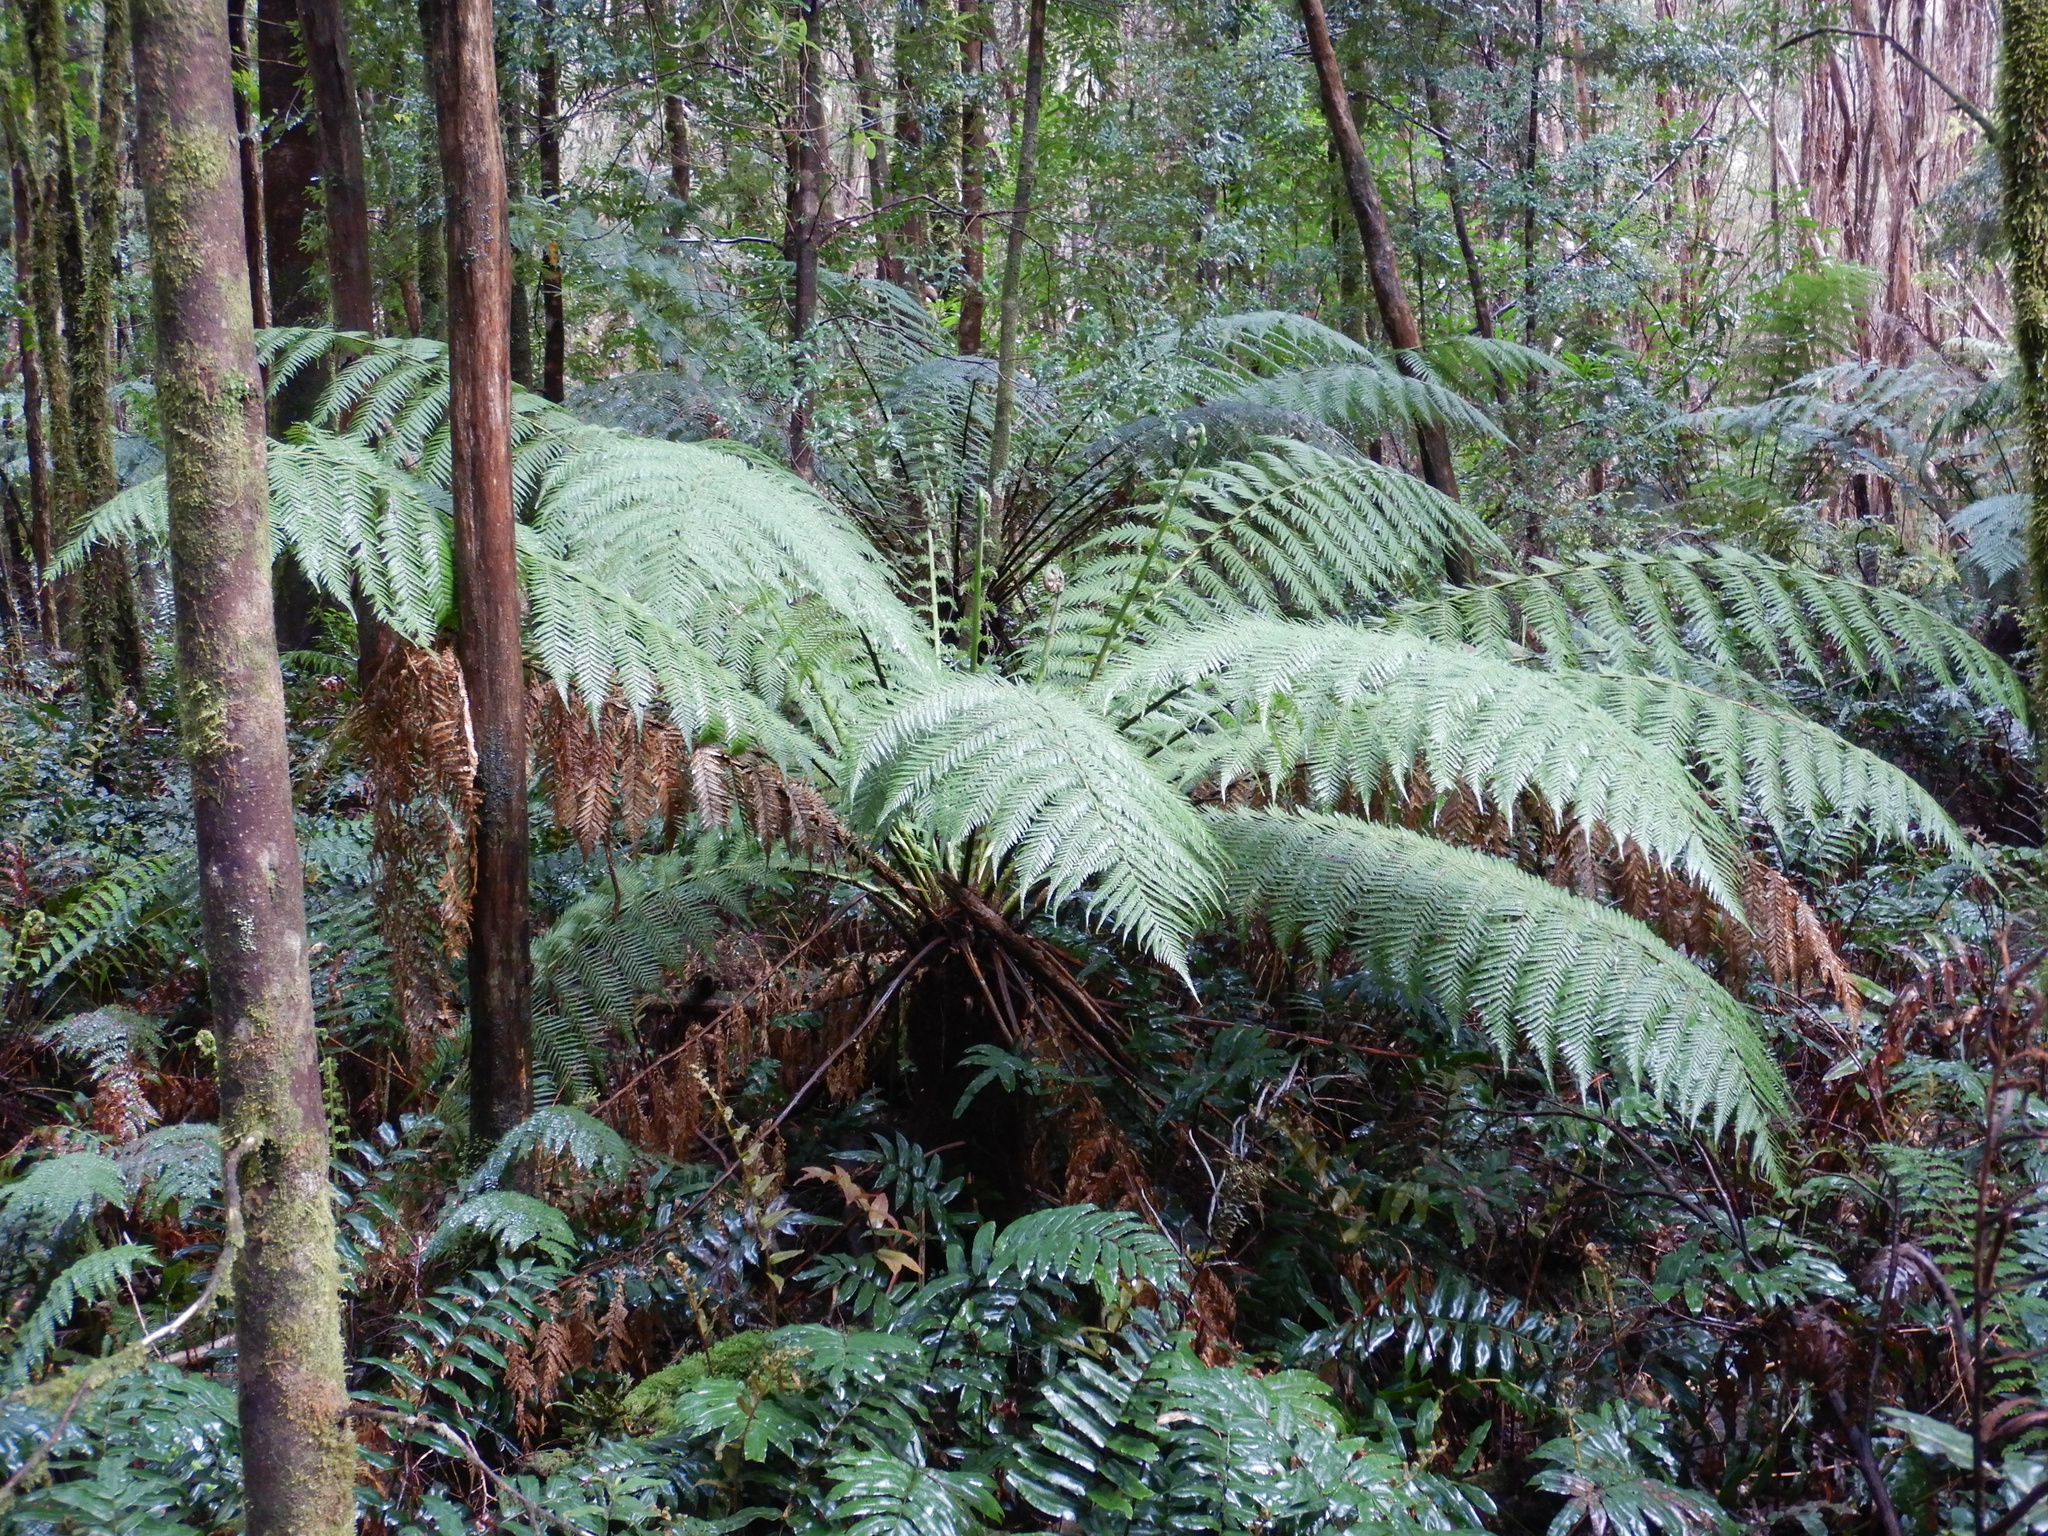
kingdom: Plantae
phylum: Tracheophyta
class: Polypodiopsida
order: Cyatheales
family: Dicksoniaceae
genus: Dicksonia
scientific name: Dicksonia antarctica
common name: Australian treefern
